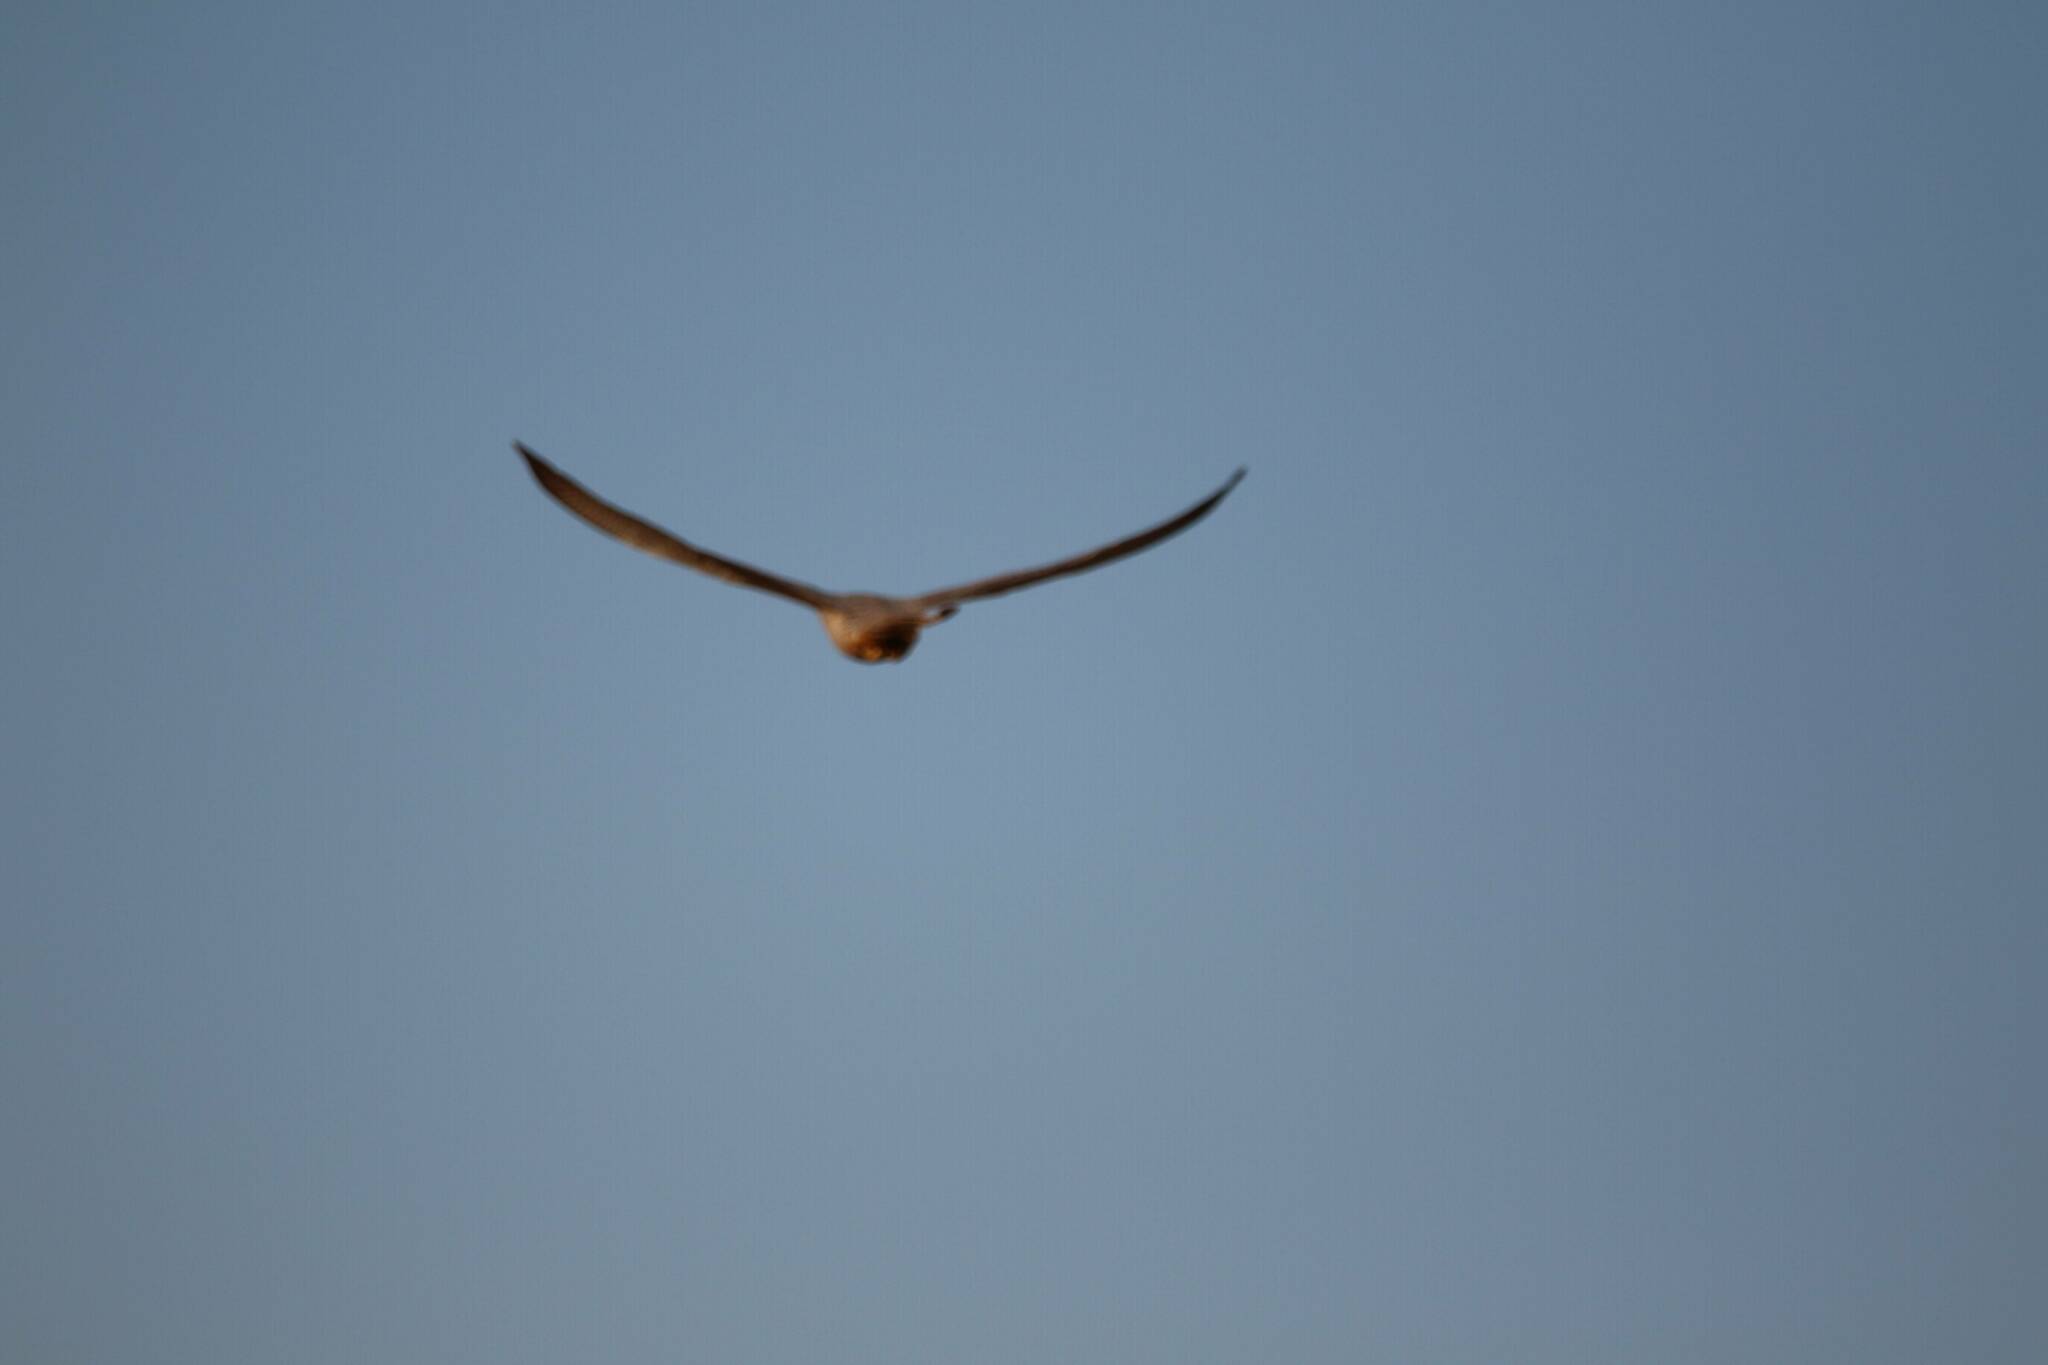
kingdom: Animalia
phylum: Chordata
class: Aves
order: Falconiformes
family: Falconidae
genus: Falco
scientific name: Falco biarmicus
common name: Lanner falcon
